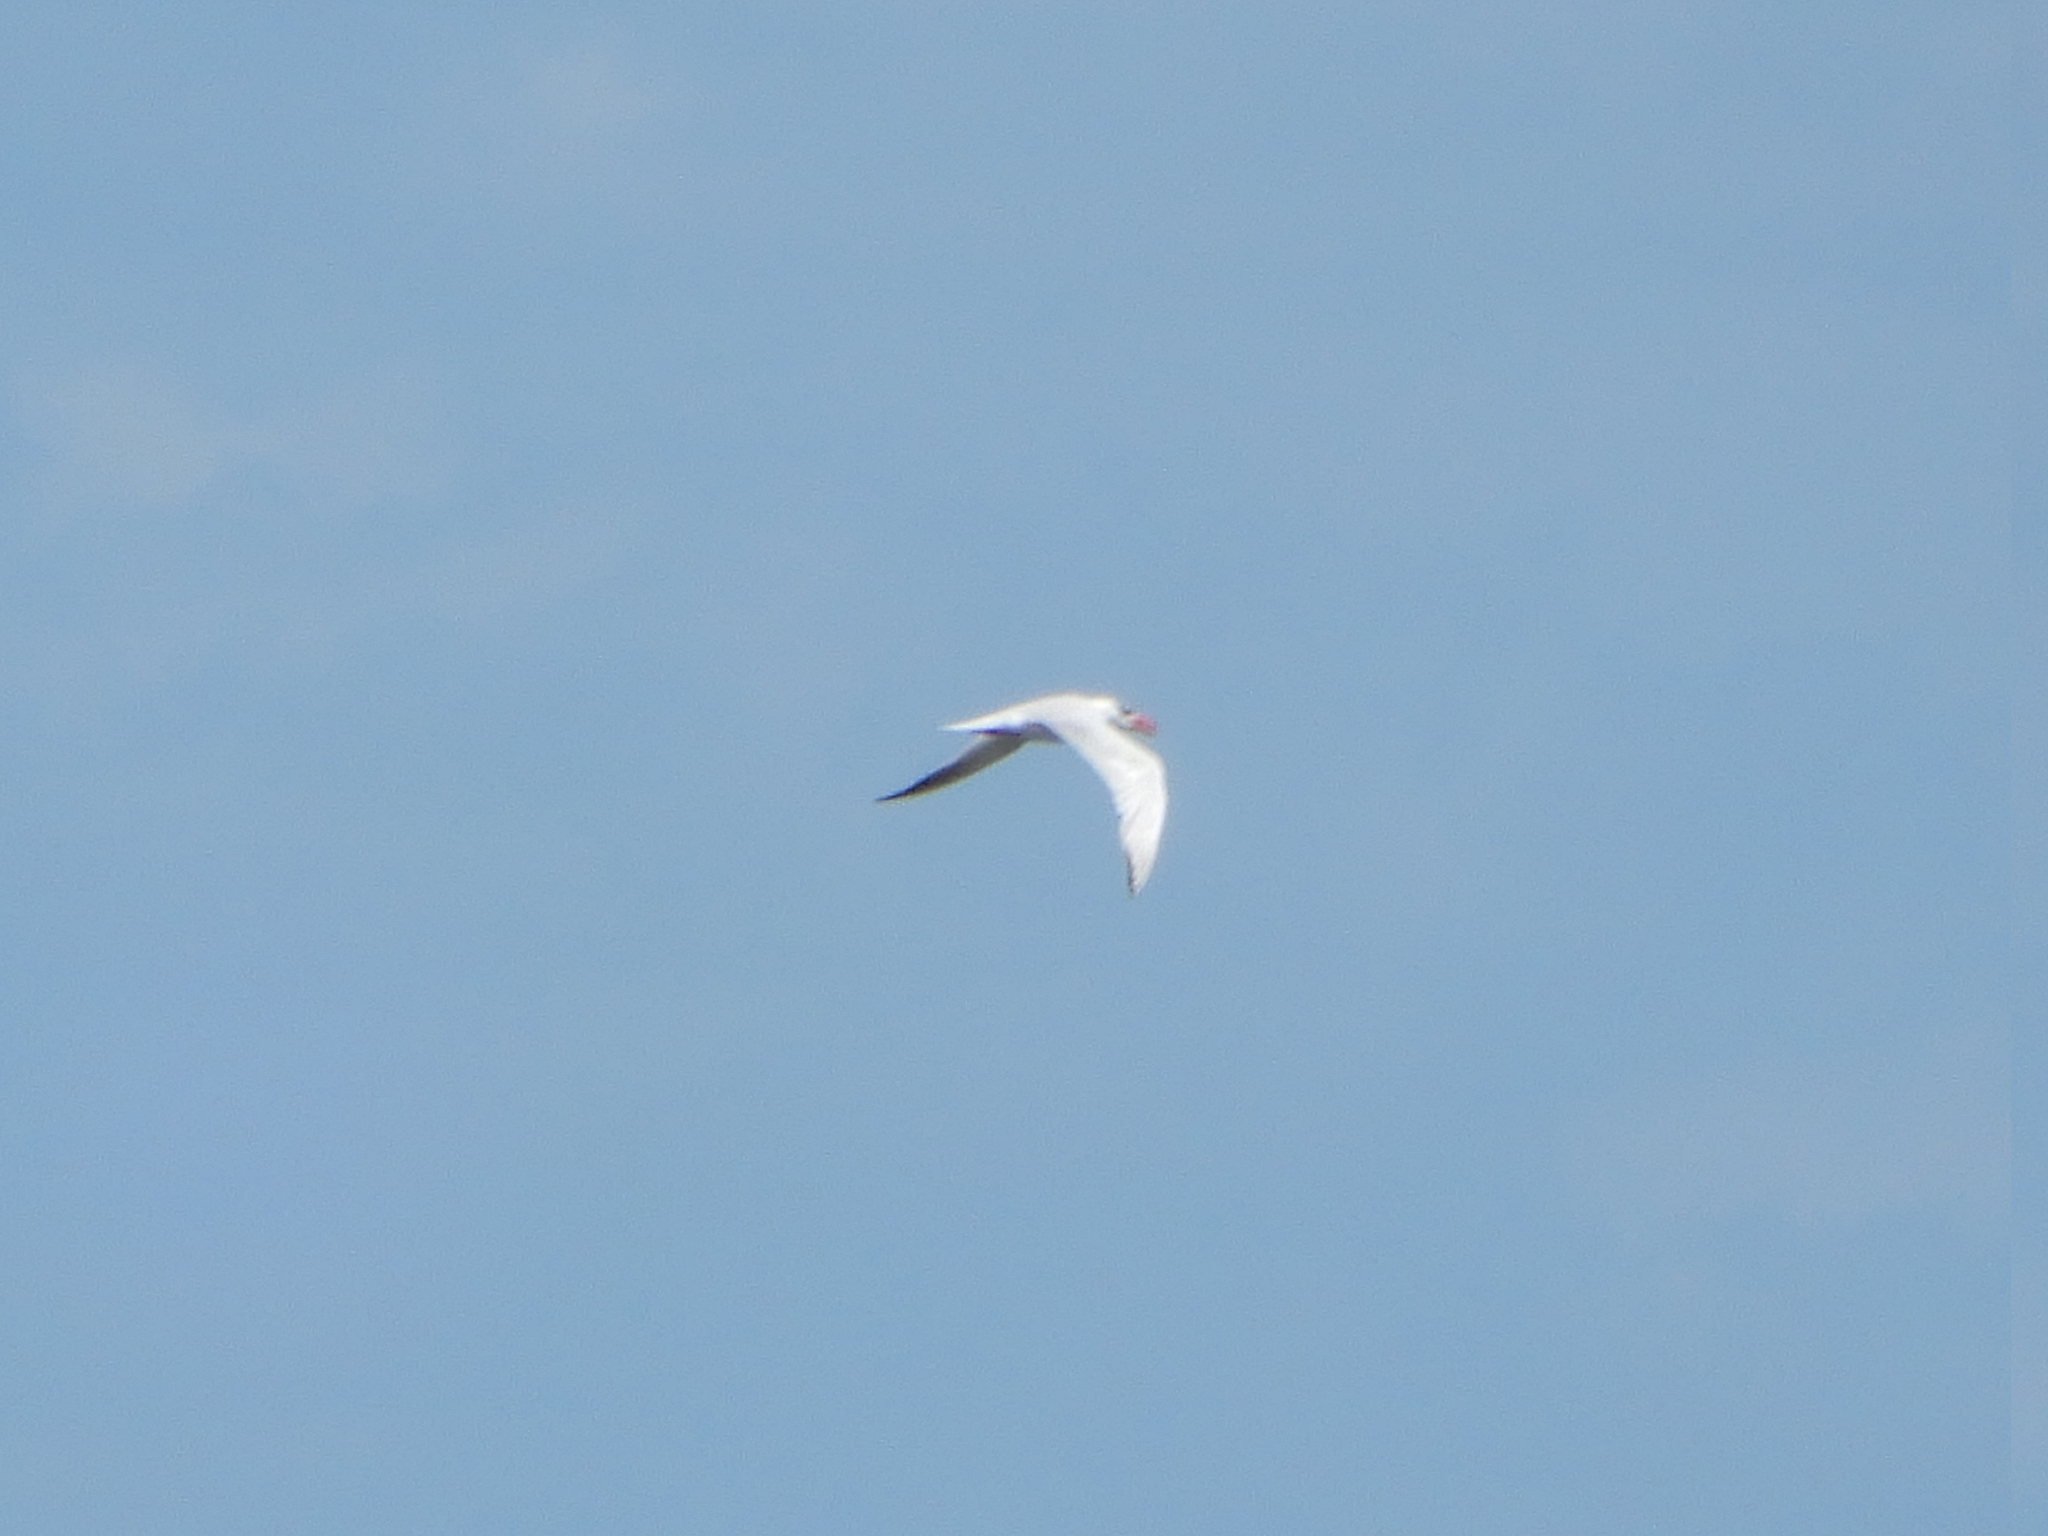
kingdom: Animalia
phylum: Chordata
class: Aves
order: Charadriiformes
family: Laridae
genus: Hydroprogne
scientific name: Hydroprogne caspia
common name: Caspian tern
